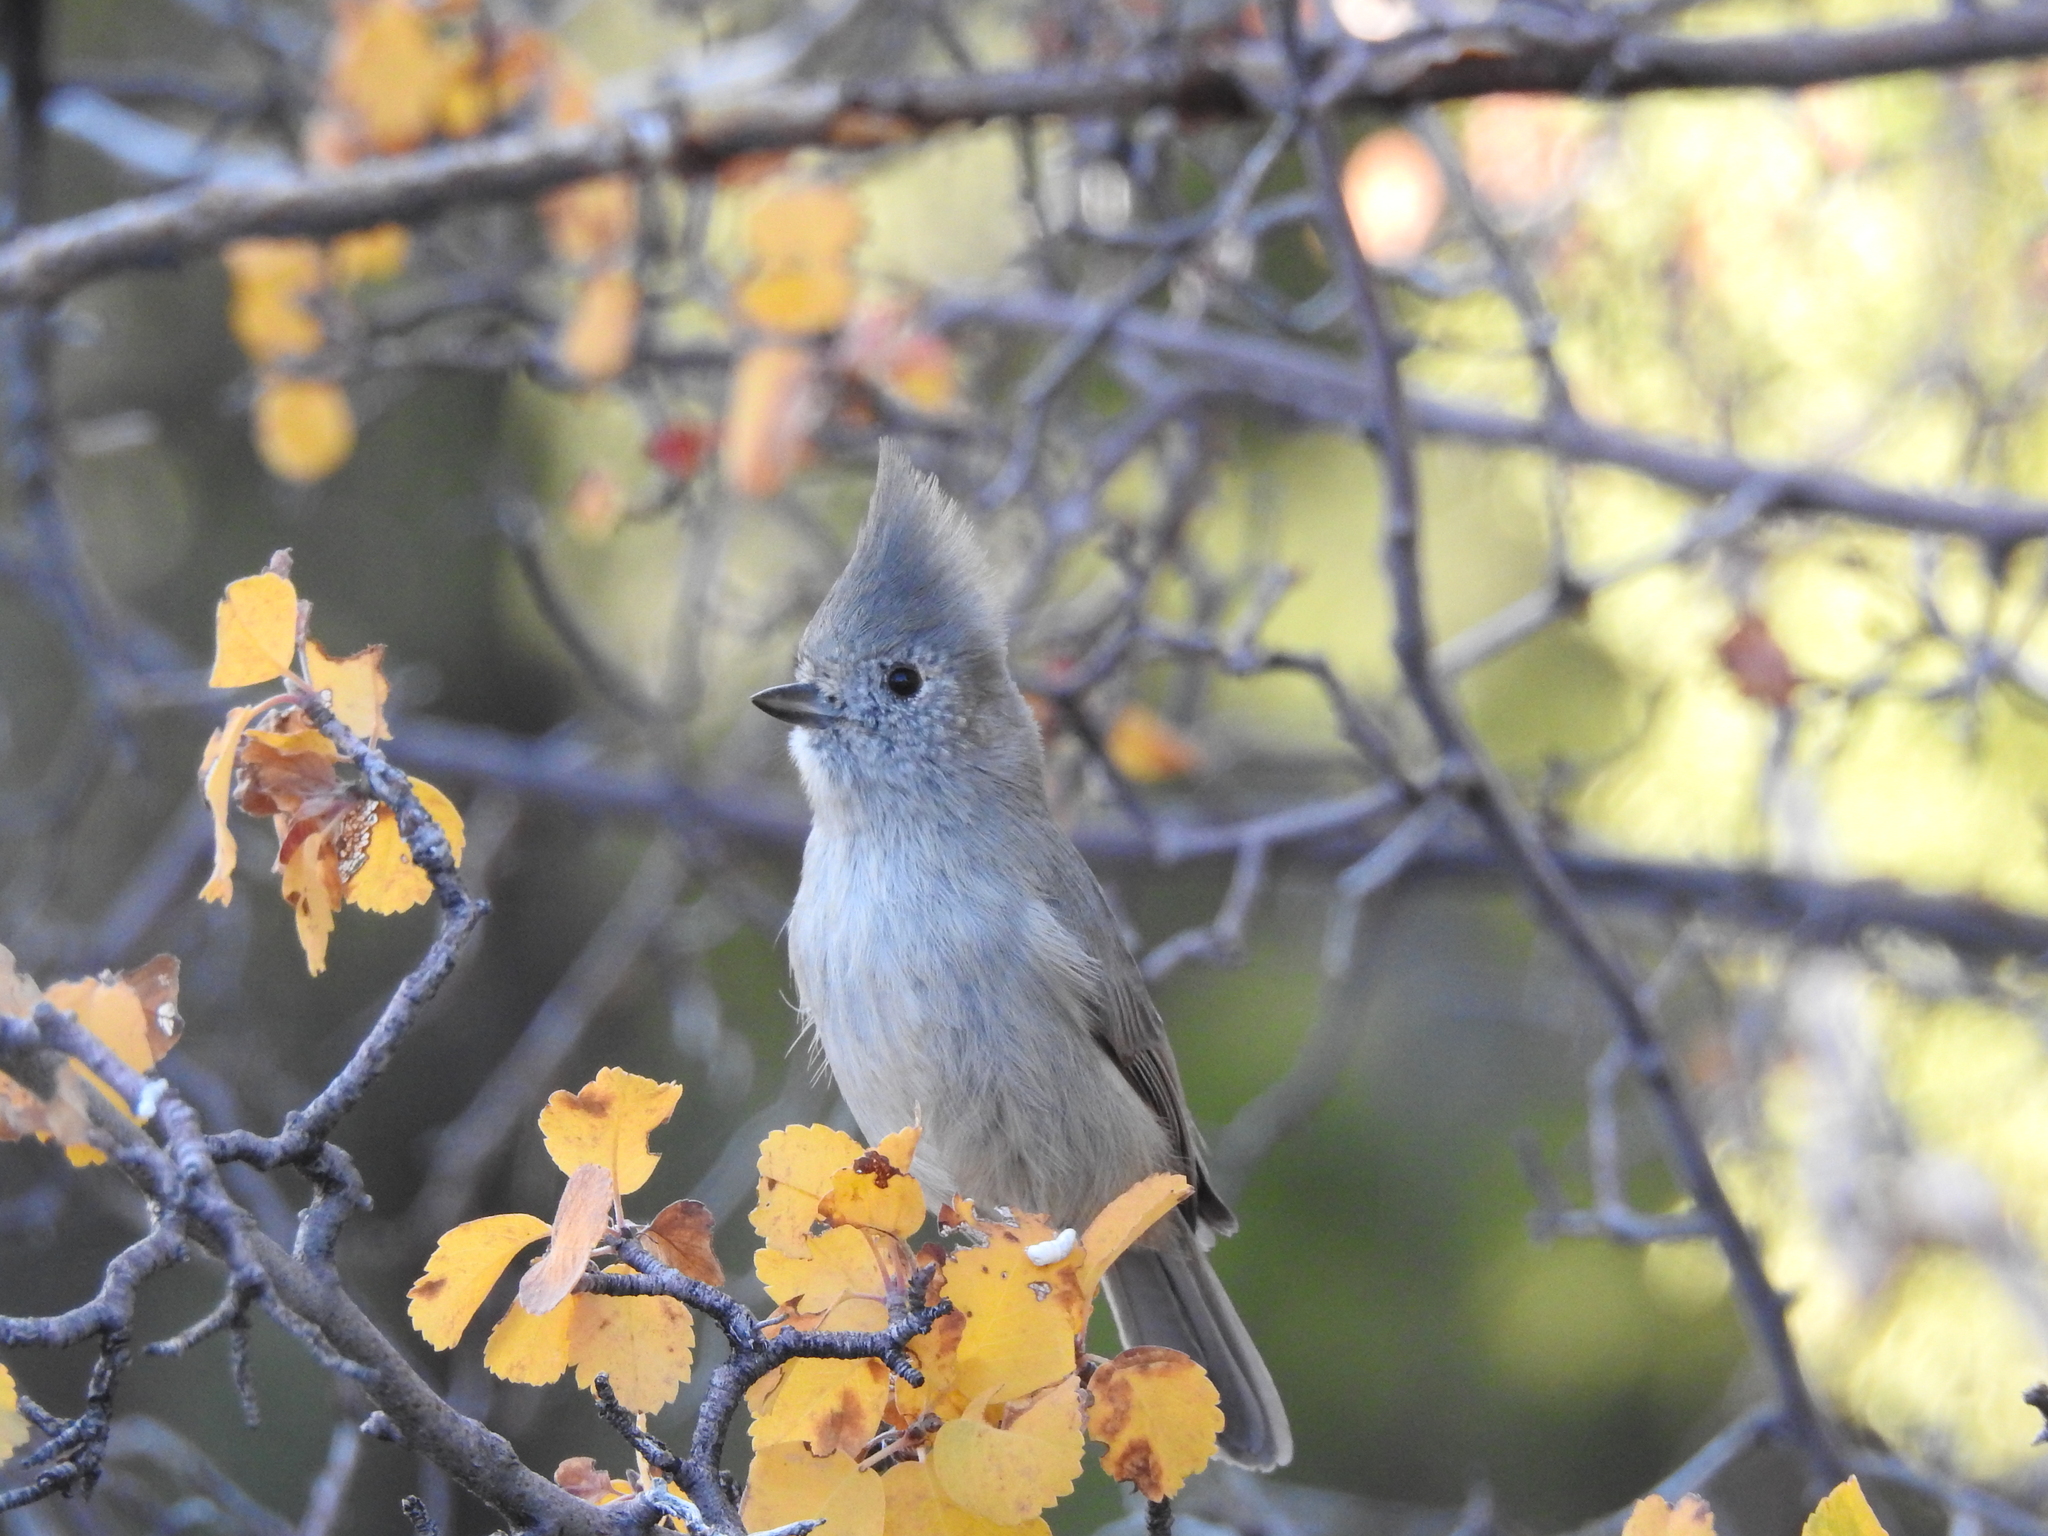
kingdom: Animalia
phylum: Chordata
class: Aves
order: Passeriformes
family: Paridae
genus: Baeolophus
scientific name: Baeolophus ridgwayi
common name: Juniper titmouse
